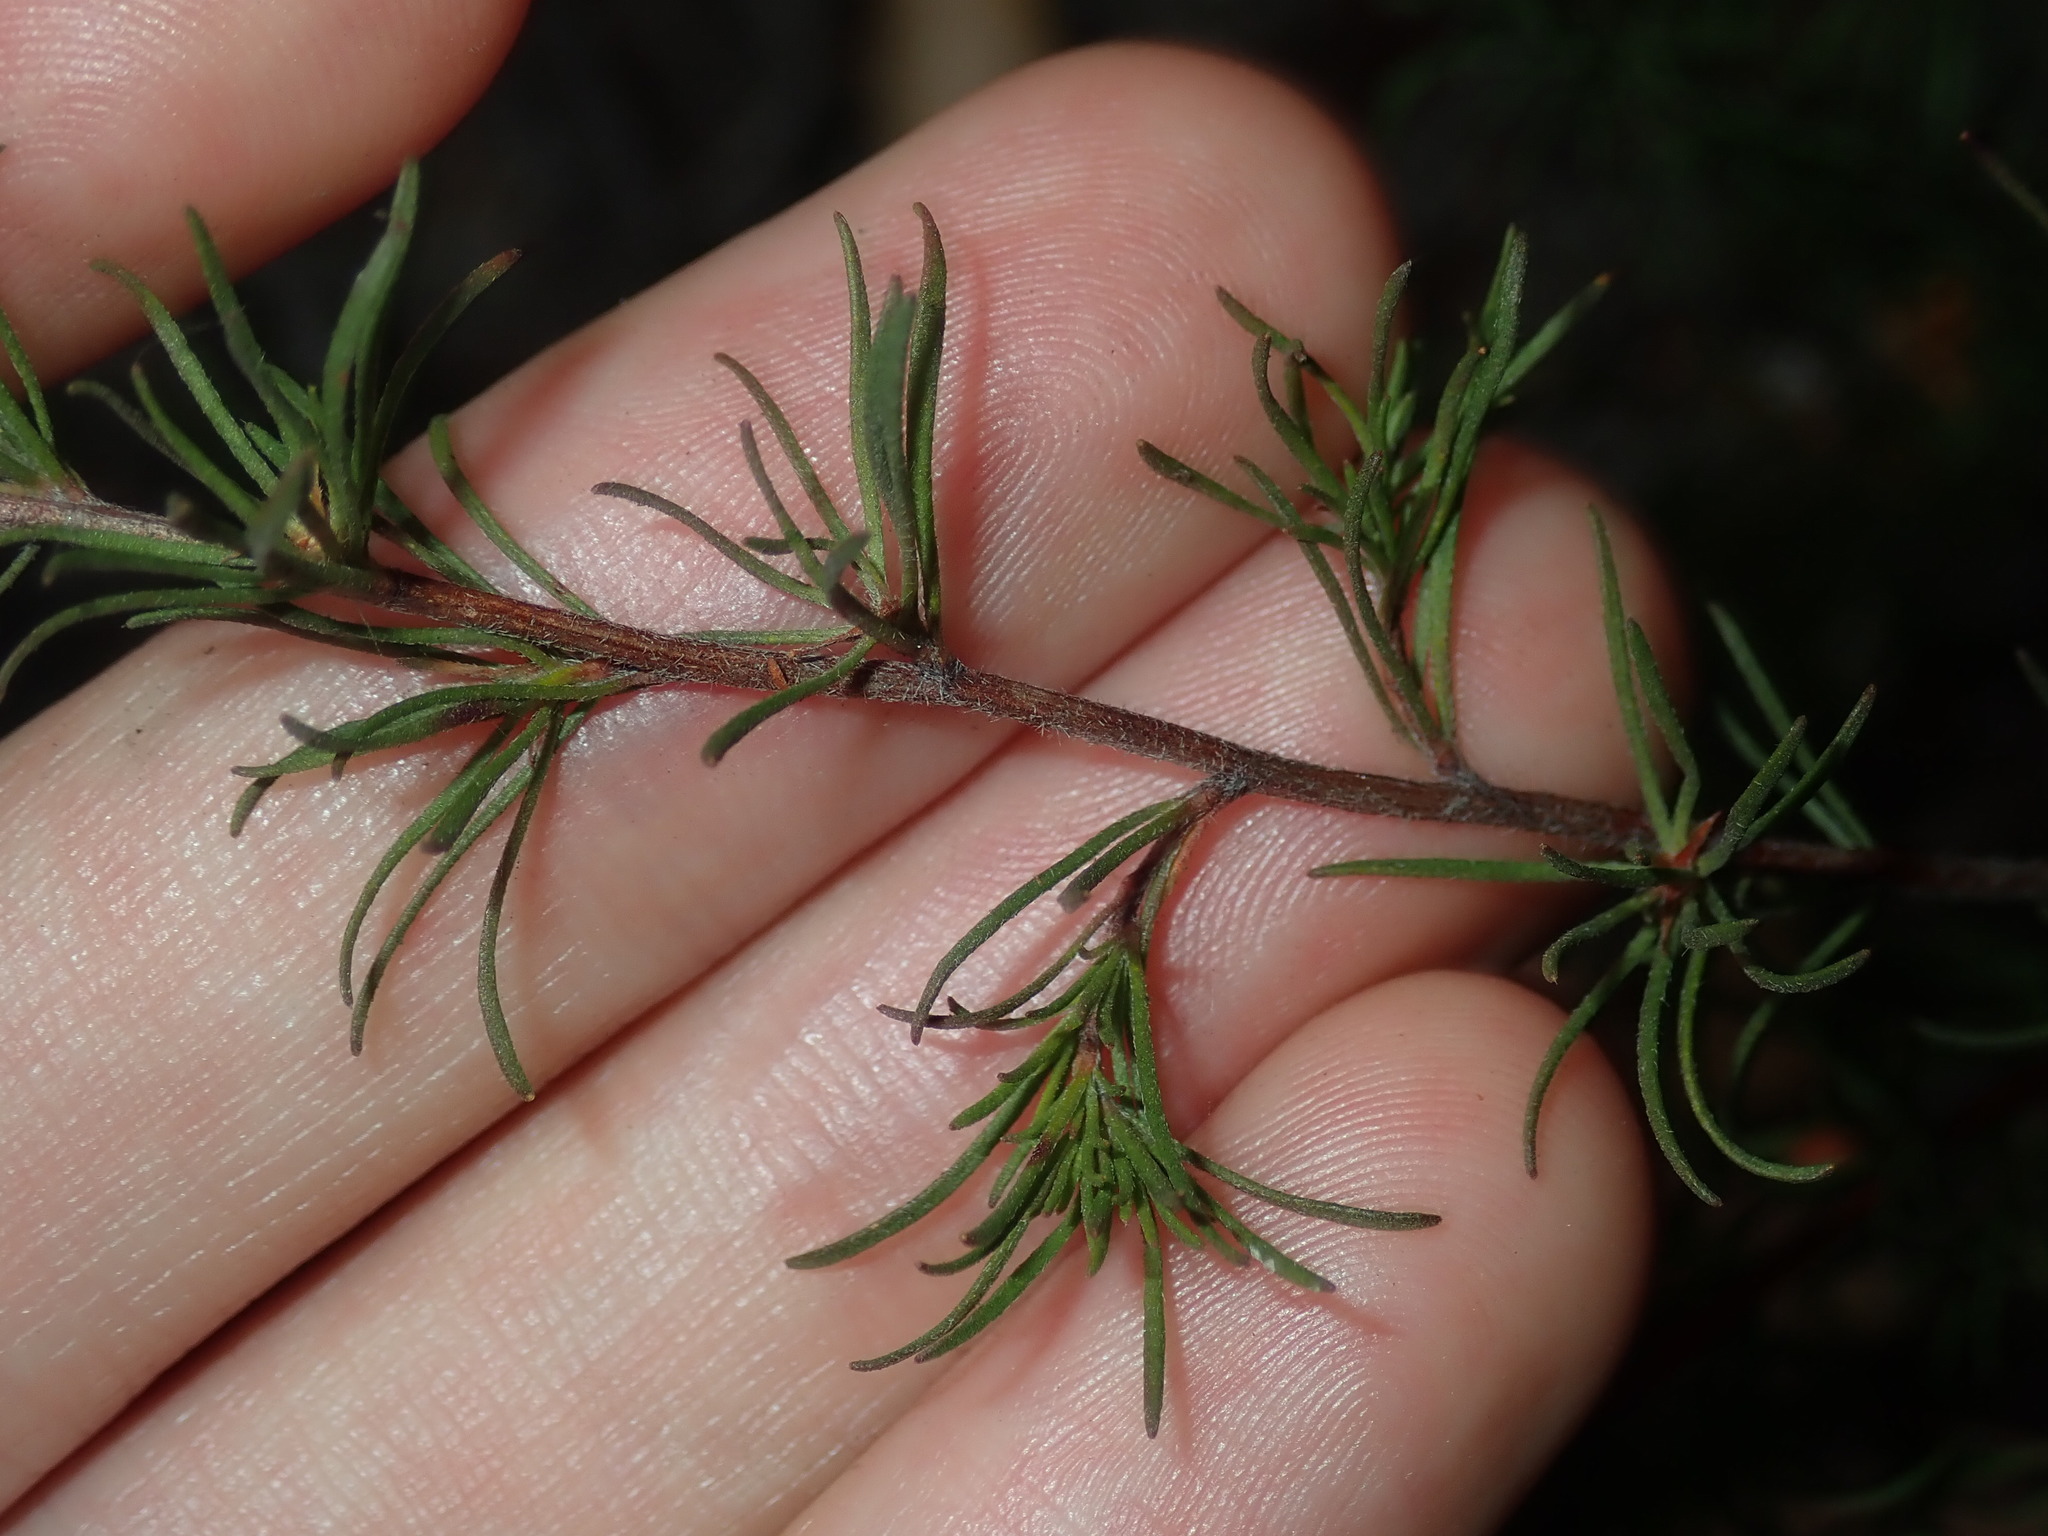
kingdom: Plantae
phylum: Tracheophyta
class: Magnoliopsida
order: Dilleniales
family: Dilleniaceae
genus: Hibbertia
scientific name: Hibbertia fasciculata
